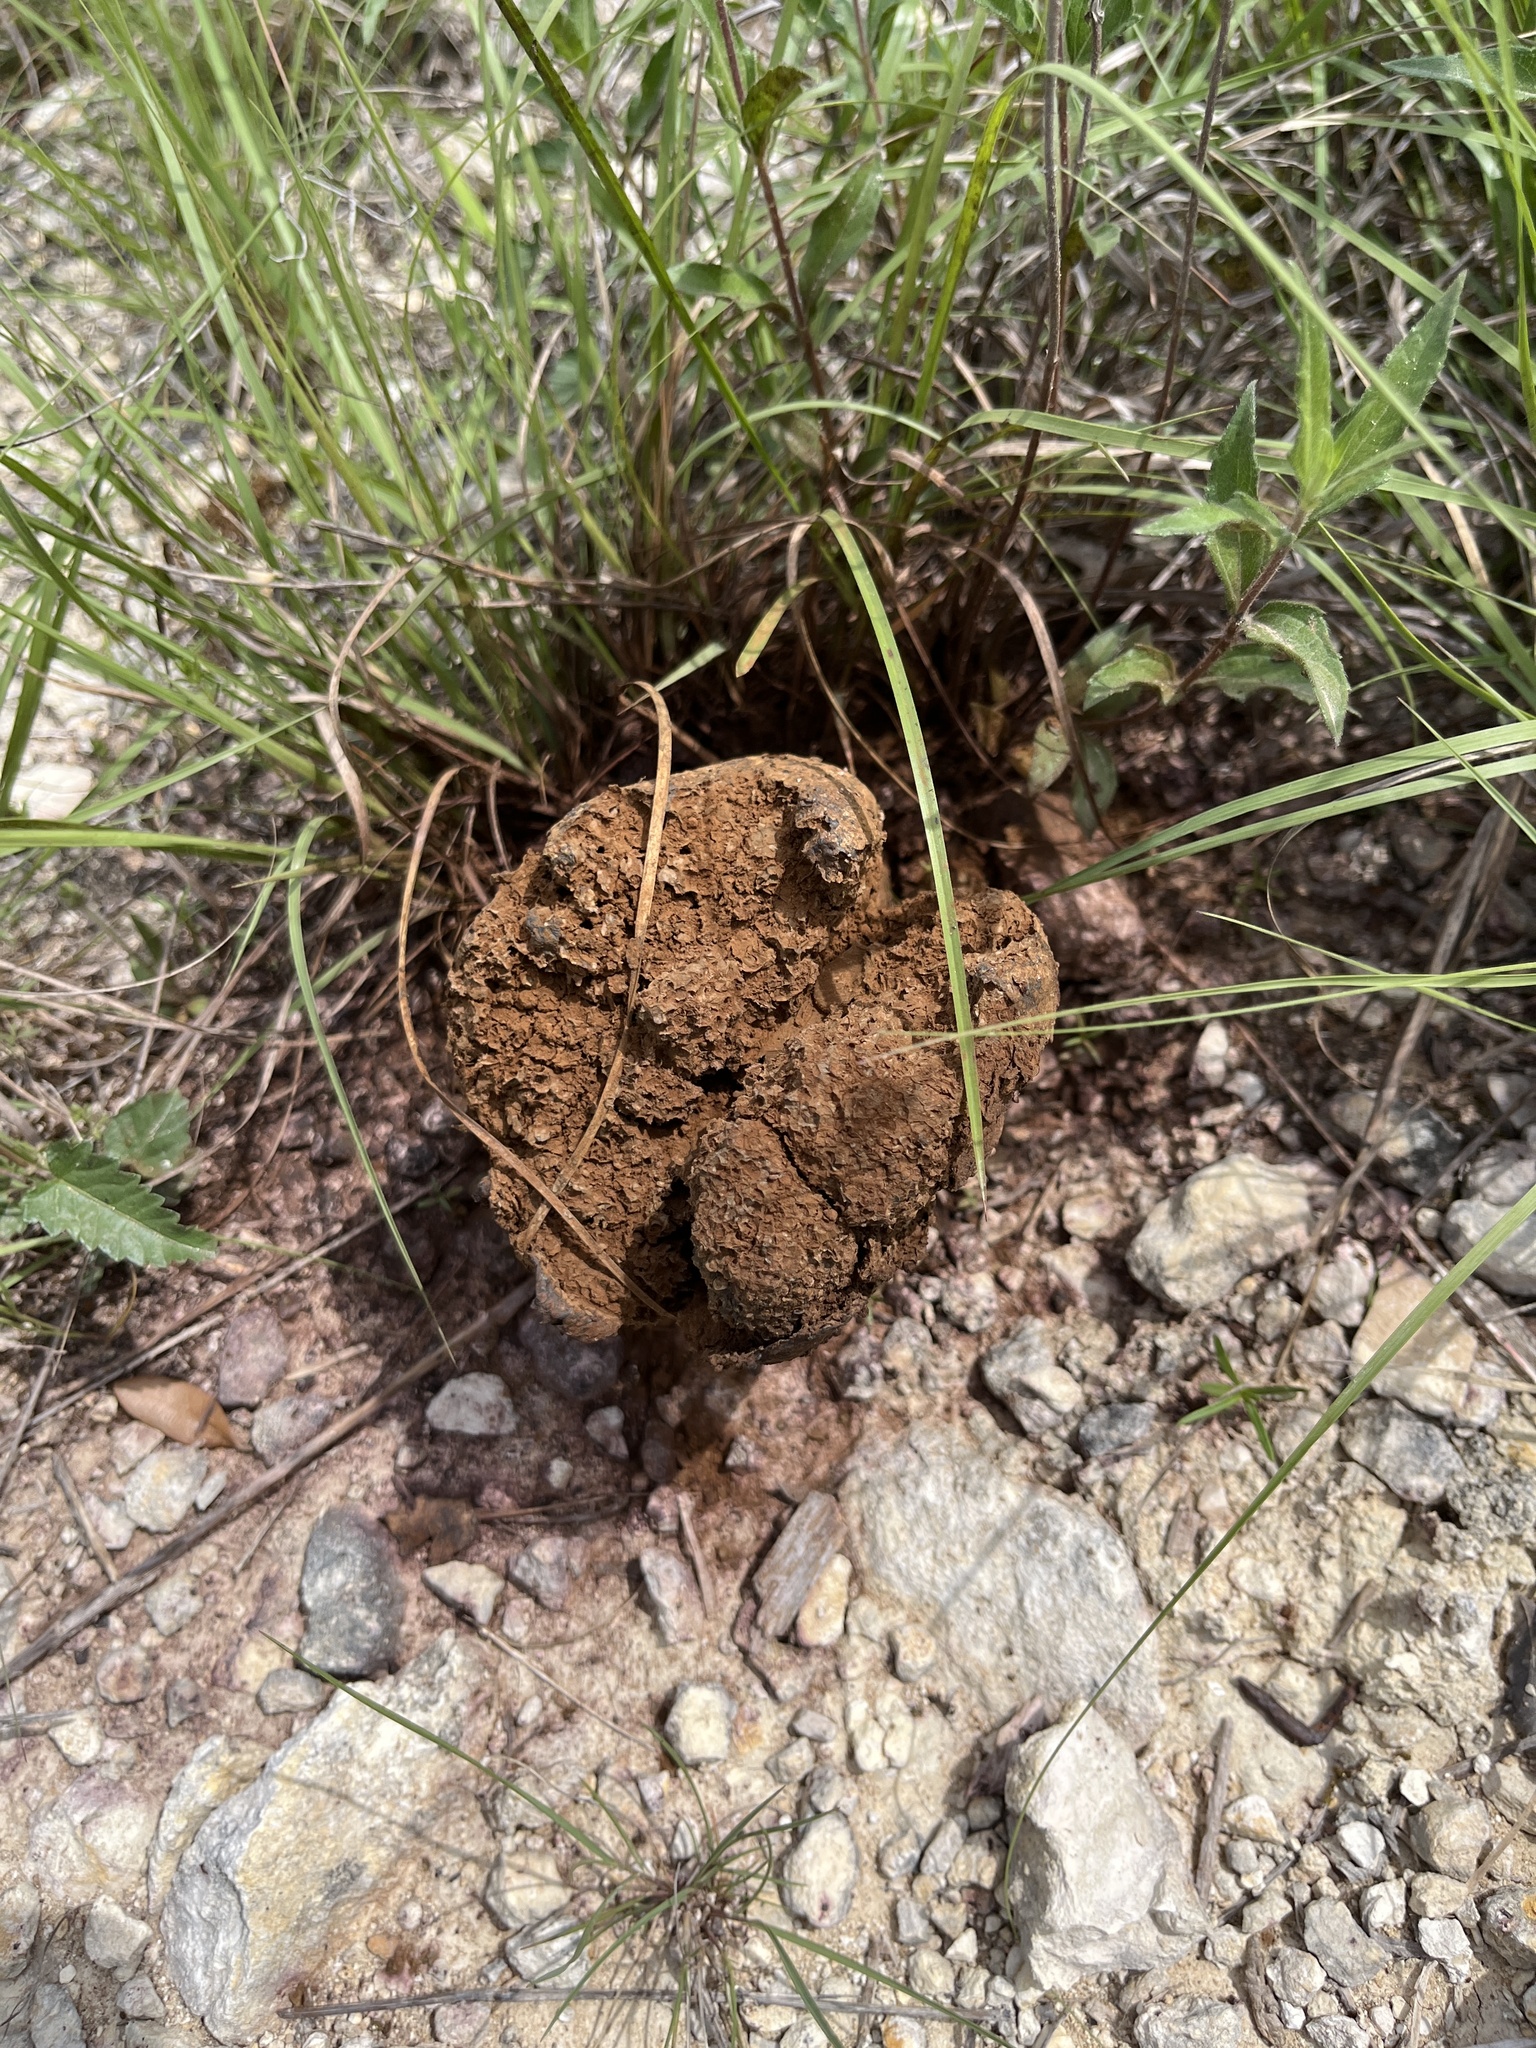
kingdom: Fungi
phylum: Basidiomycota
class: Agaricomycetes
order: Boletales
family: Sclerodermataceae
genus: Pisolithus
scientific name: Pisolithus arenarius
